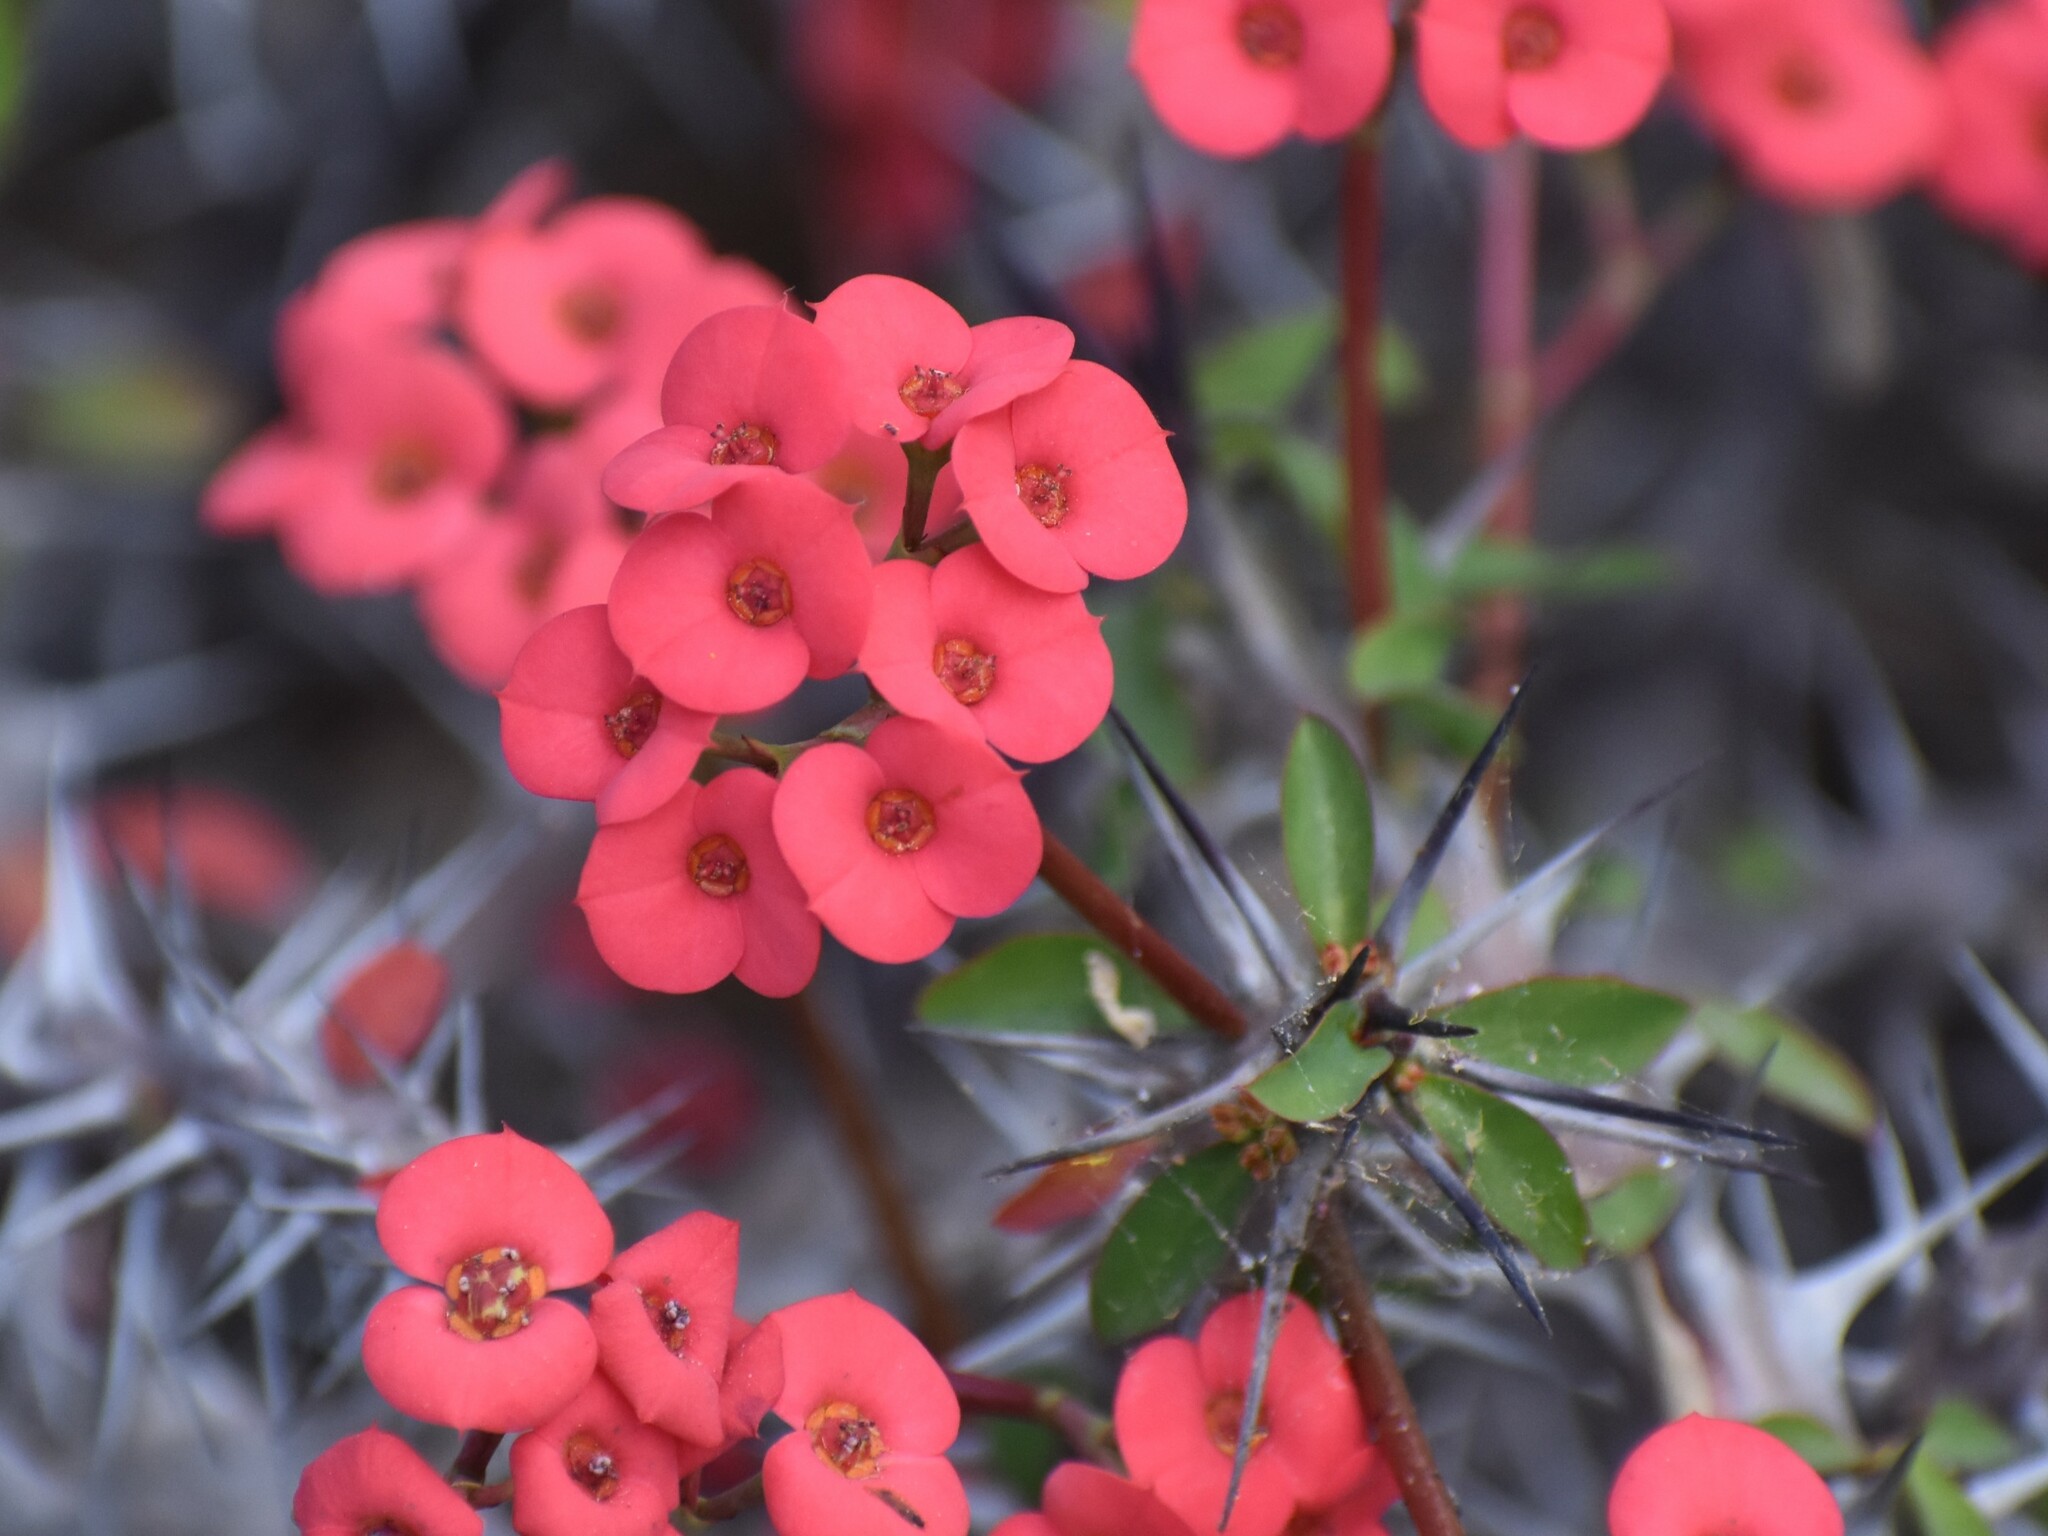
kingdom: Plantae
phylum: Tracheophyta
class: Magnoliopsida
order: Malpighiales
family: Euphorbiaceae
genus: Euphorbia
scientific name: Euphorbia milii
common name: Christplant
